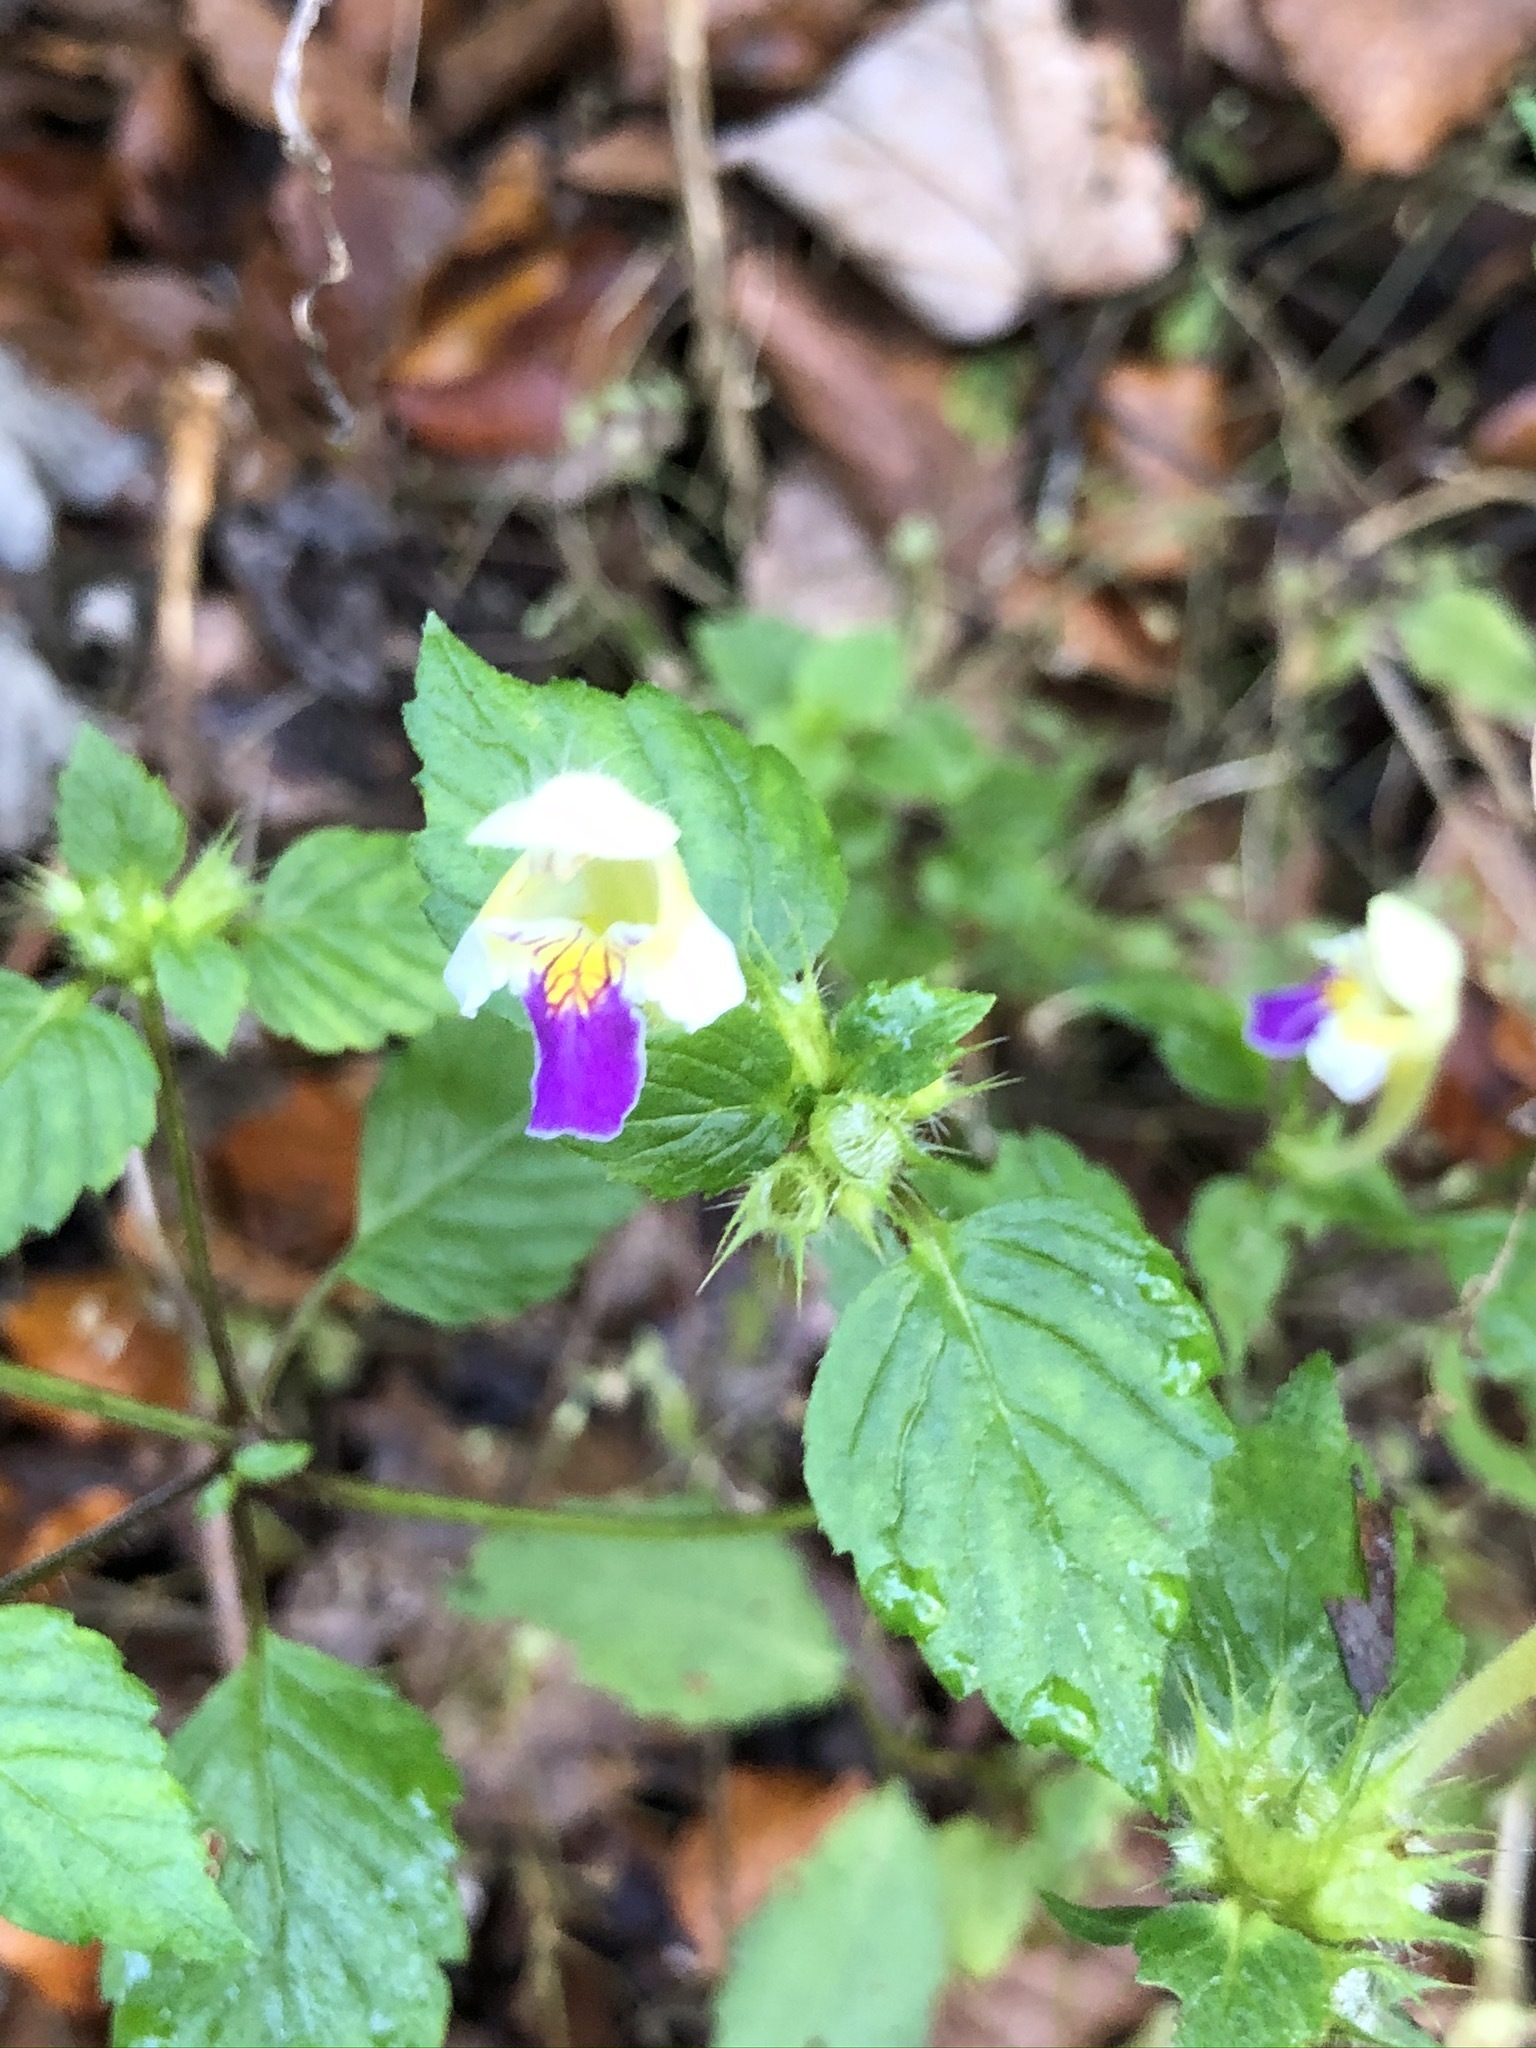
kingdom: Plantae
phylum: Tracheophyta
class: Magnoliopsida
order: Lamiales
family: Lamiaceae
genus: Galeopsis
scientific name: Galeopsis speciosa
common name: Large-flowered hemp-nettle
